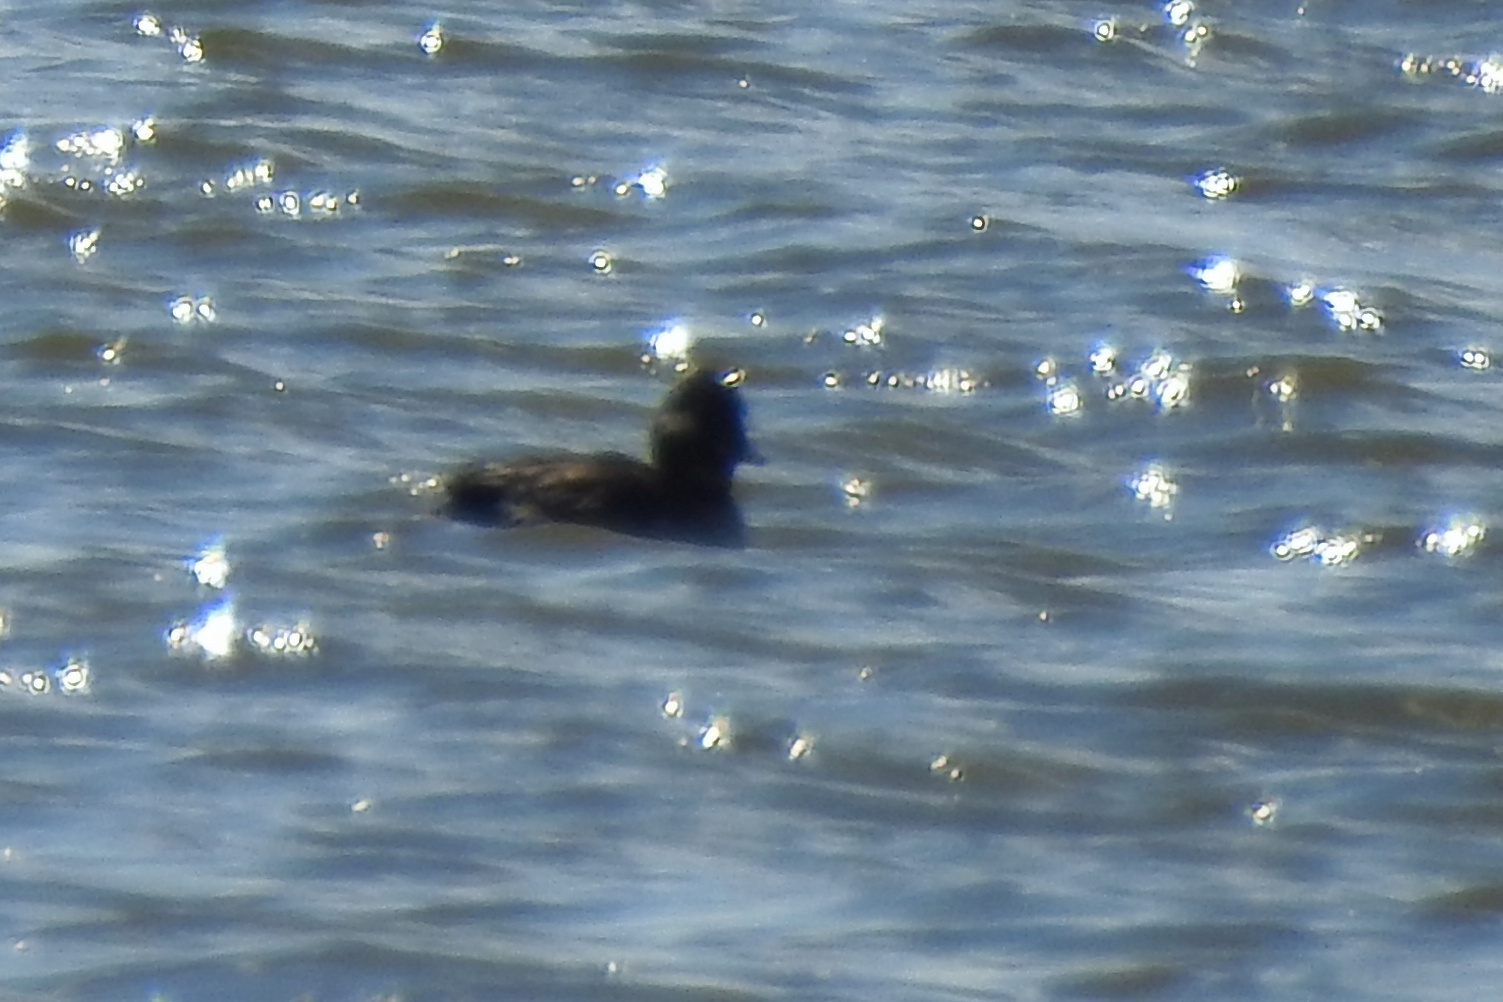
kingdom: Animalia
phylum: Chordata
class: Aves
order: Anseriformes
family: Anatidae
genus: Bucephala
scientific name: Bucephala albeola
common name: Bufflehead
